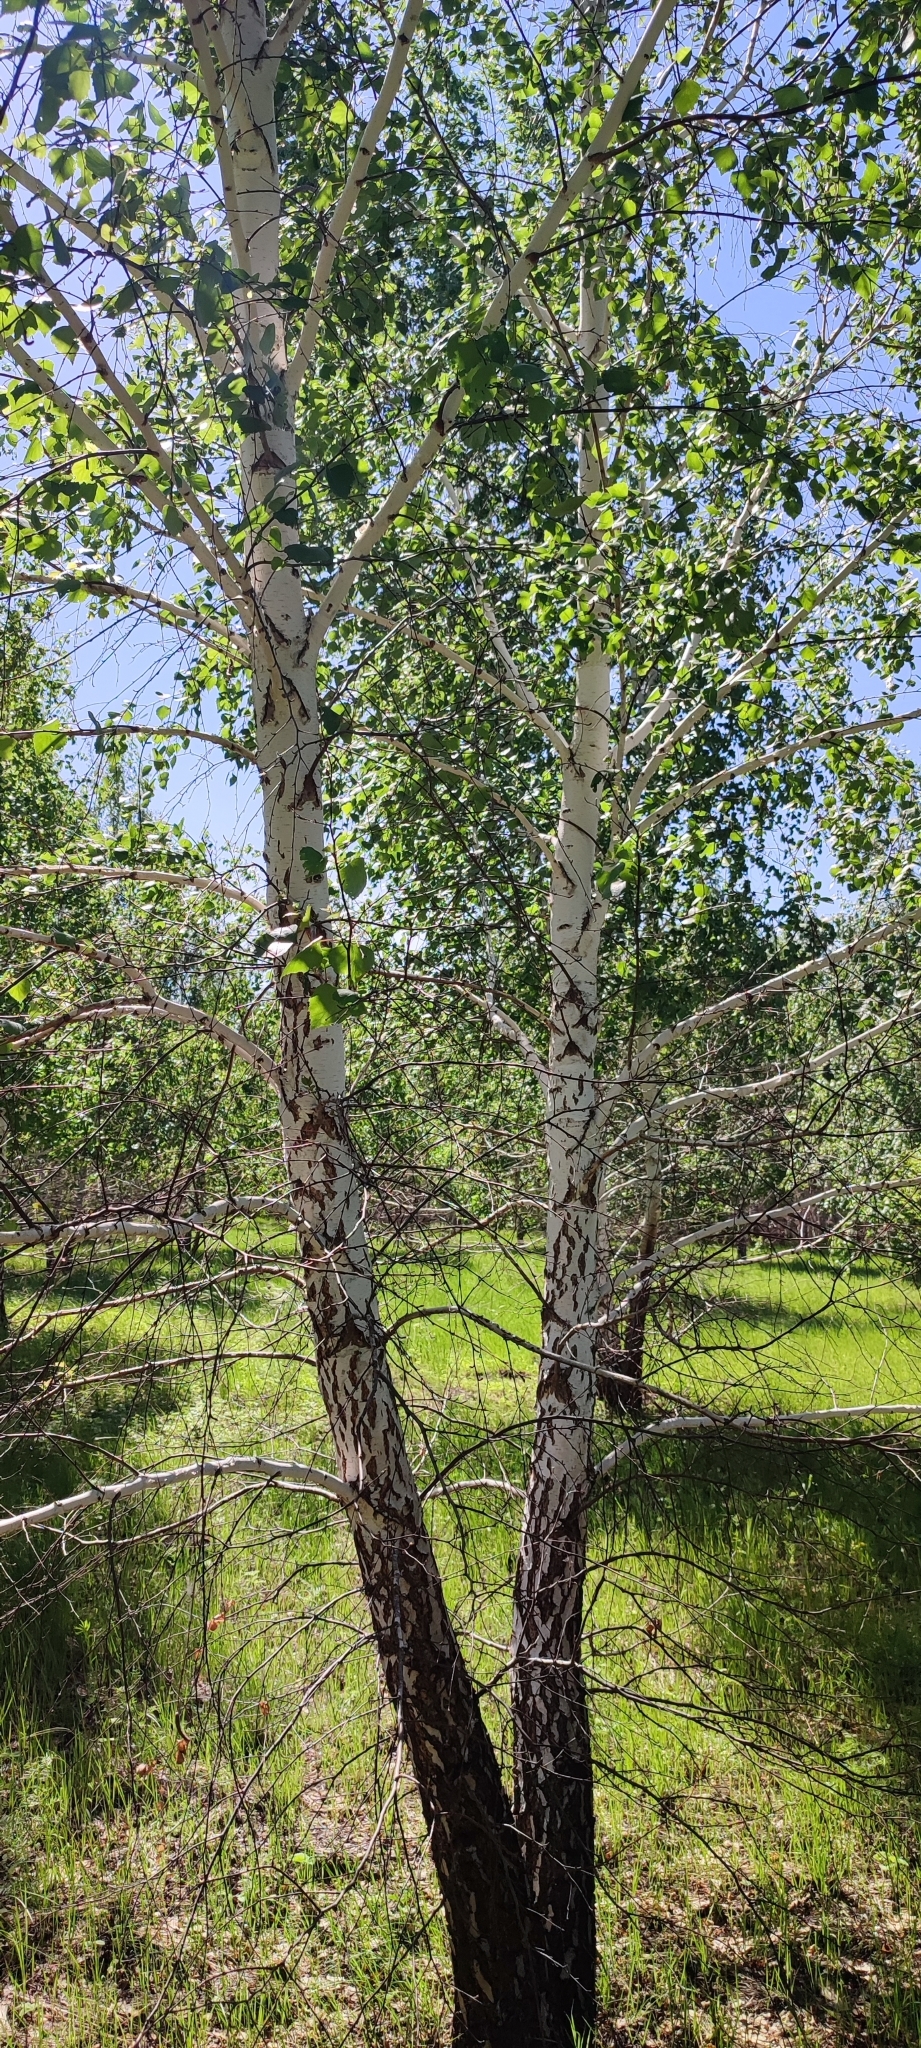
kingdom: Plantae
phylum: Tracheophyta
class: Magnoliopsida
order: Fagales
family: Betulaceae
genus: Betula
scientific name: Betula pendula
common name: Silver birch
